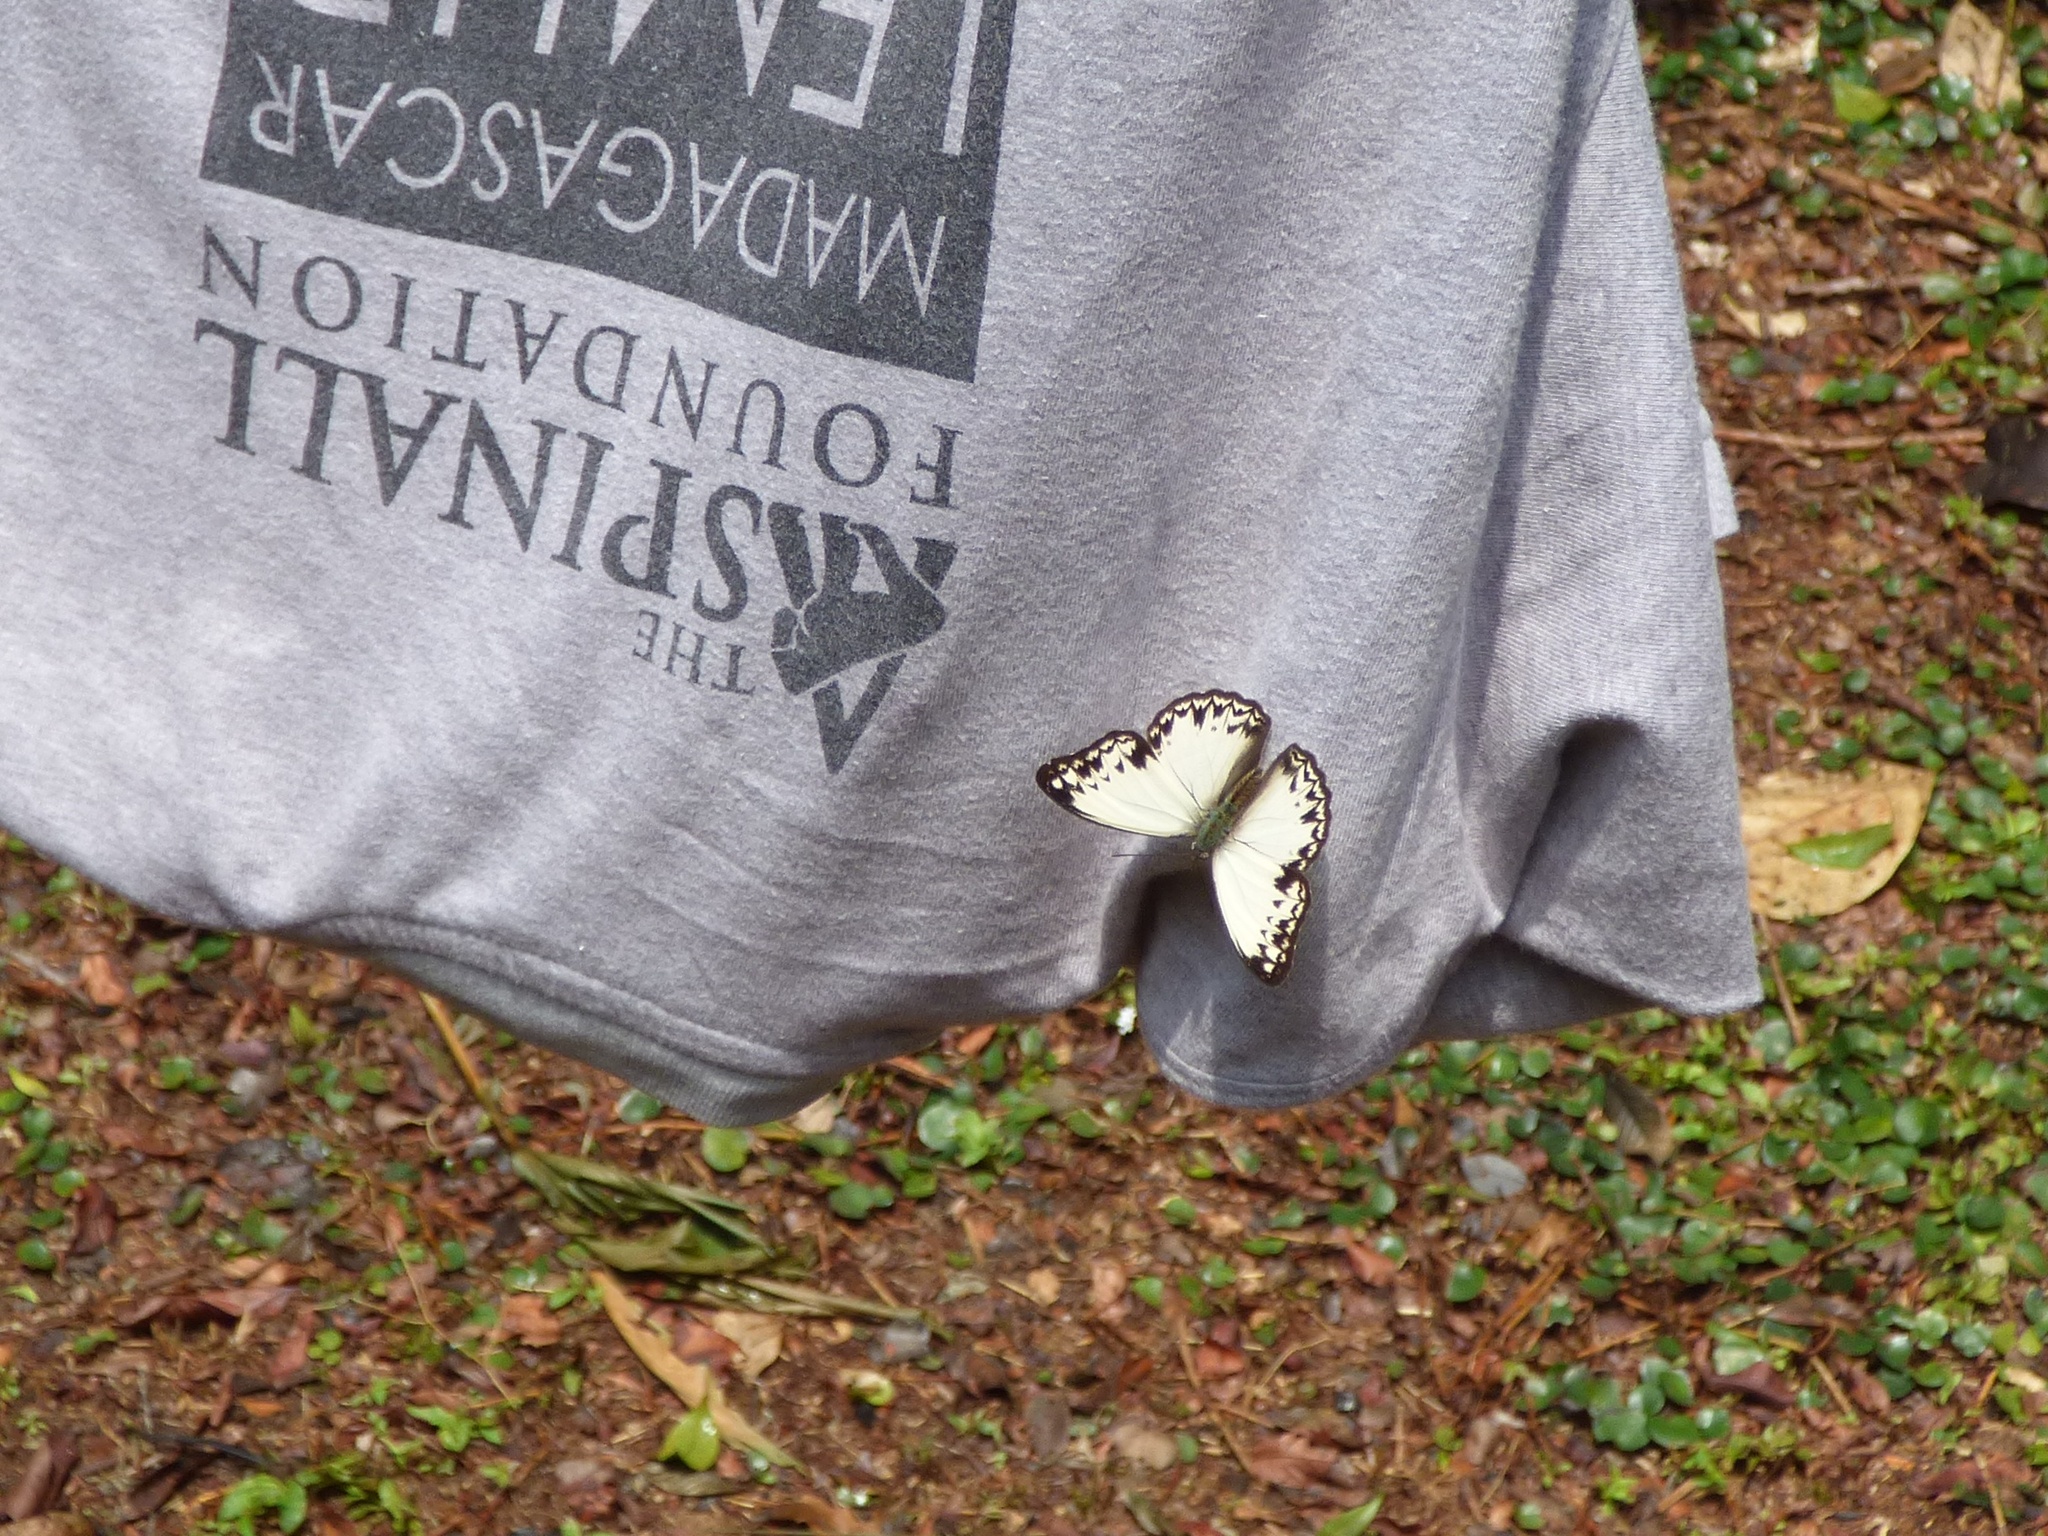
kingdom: Animalia
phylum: Arthropoda
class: Insecta
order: Lepidoptera
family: Nymphalidae
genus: Cymothoe
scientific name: Cymothoe caenis
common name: Common glider
